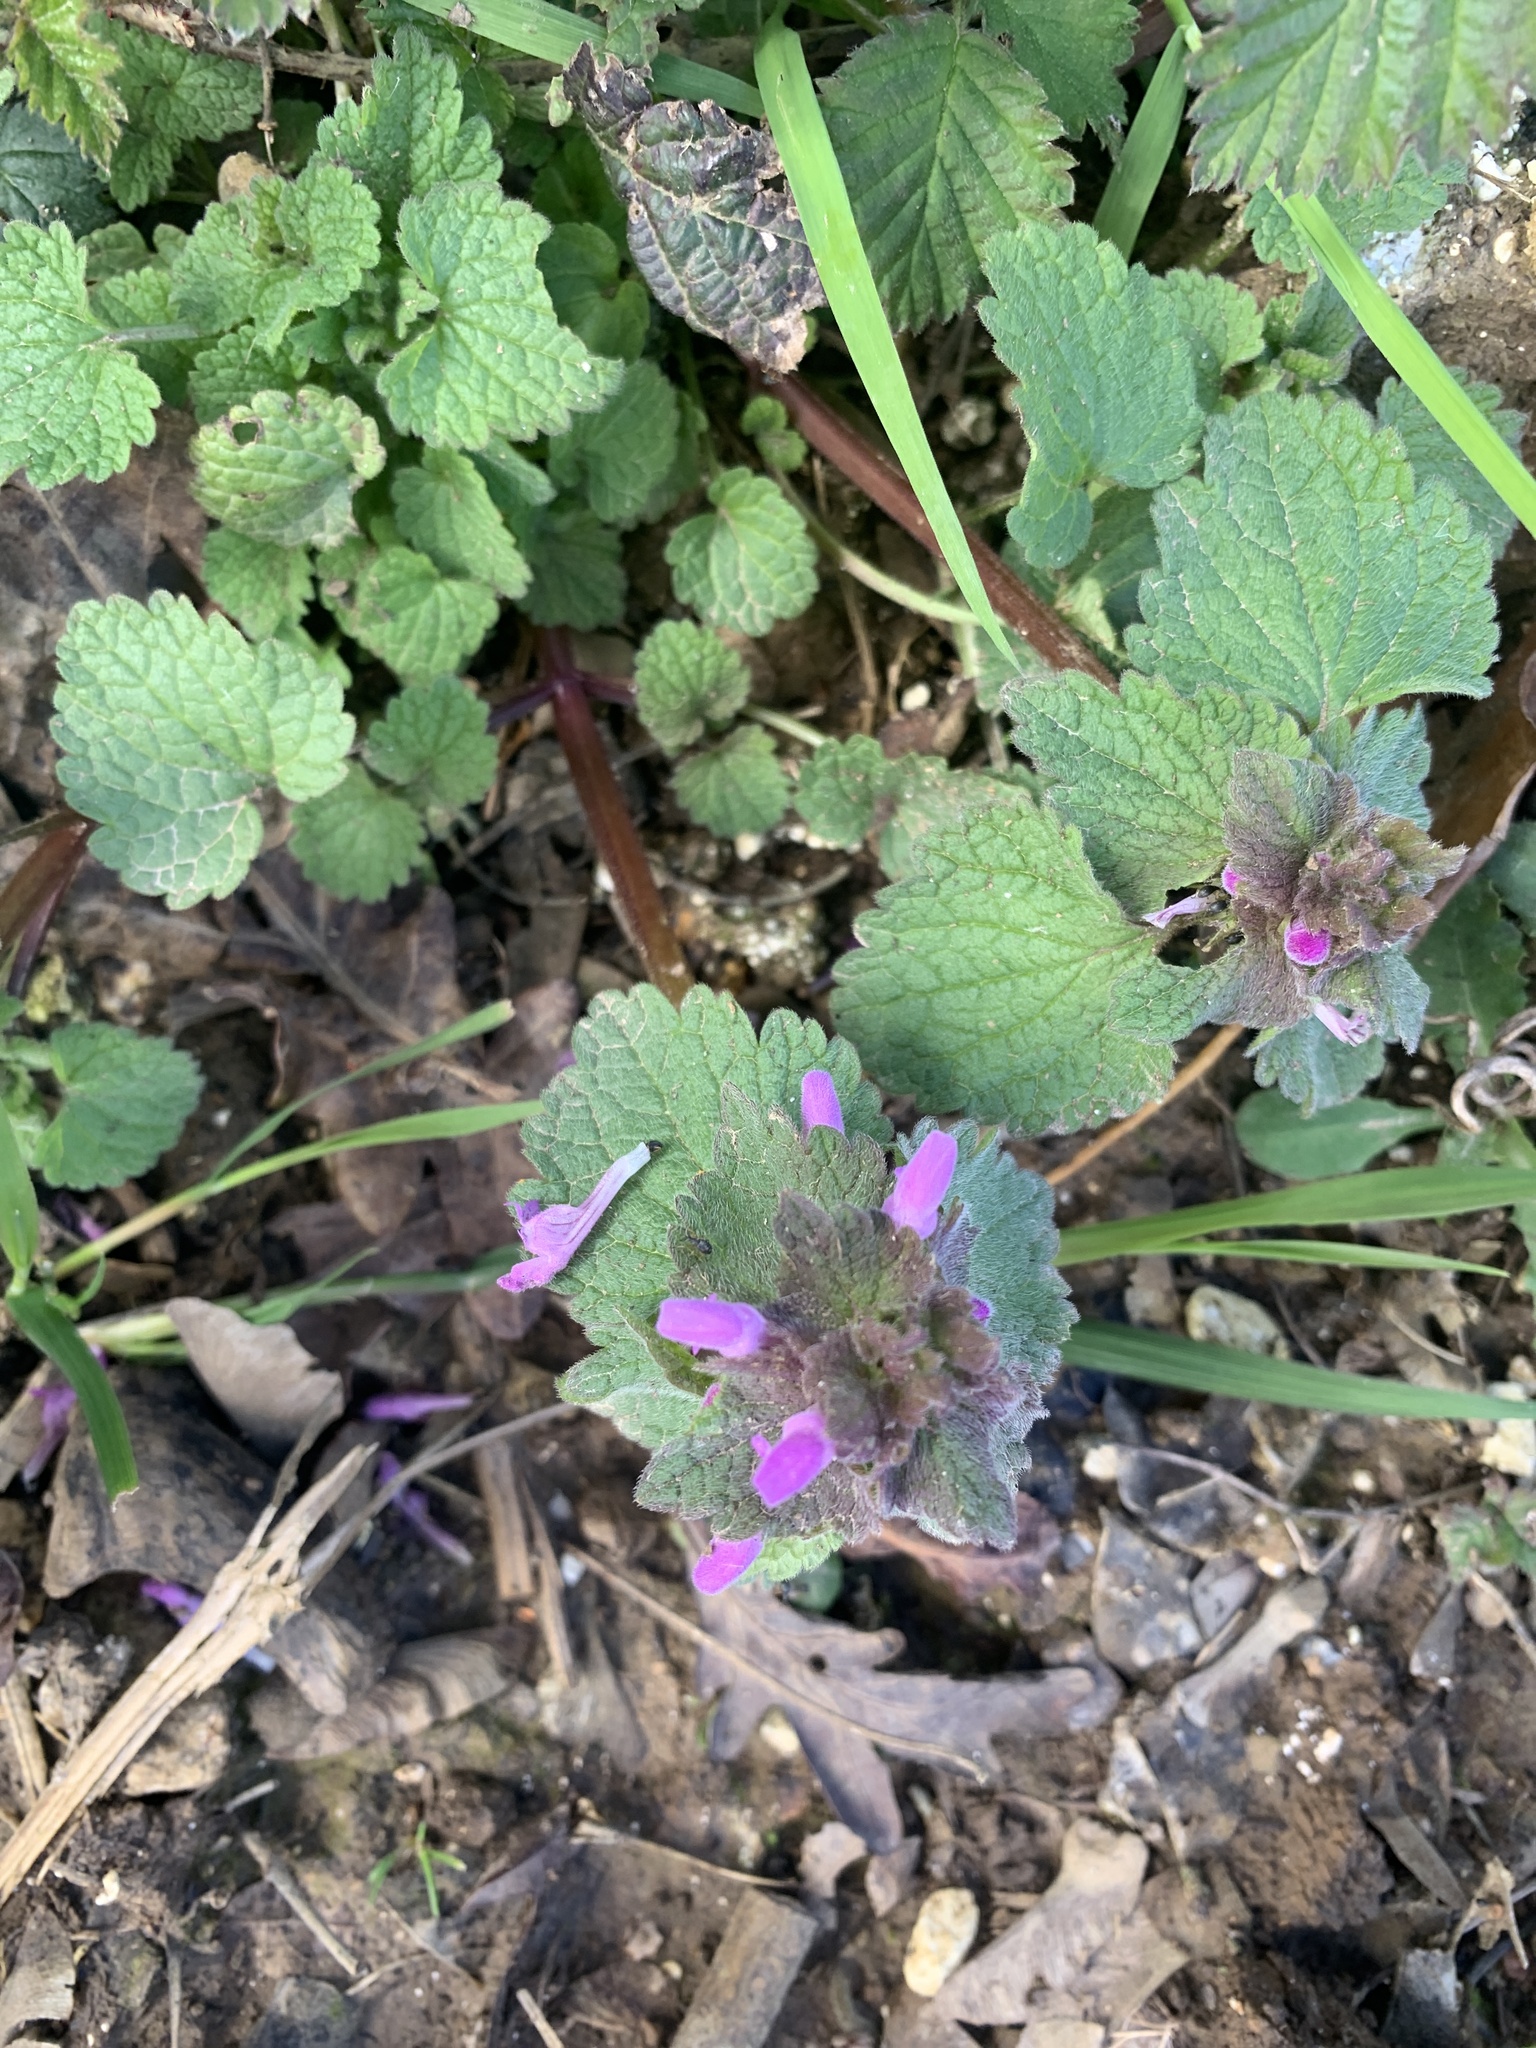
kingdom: Plantae
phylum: Tracheophyta
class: Magnoliopsida
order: Lamiales
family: Lamiaceae
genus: Lamium
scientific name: Lamium purpureum
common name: Red dead-nettle
